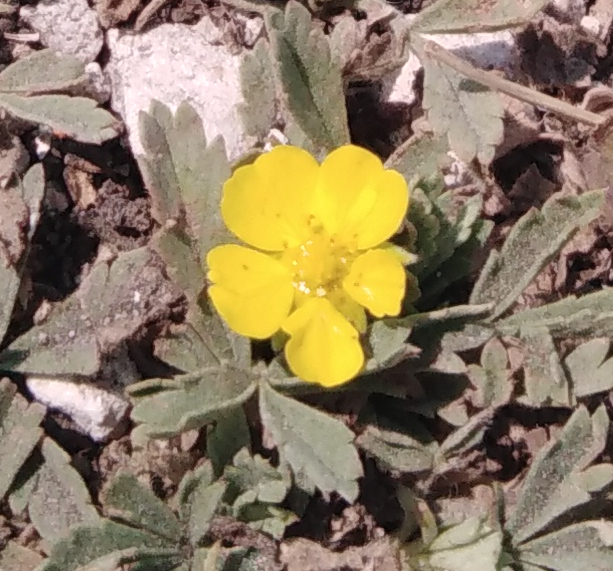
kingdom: Plantae
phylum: Tracheophyta
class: Magnoliopsida
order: Rosales
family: Rosaceae
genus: Potentilla
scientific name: Potentilla incana
